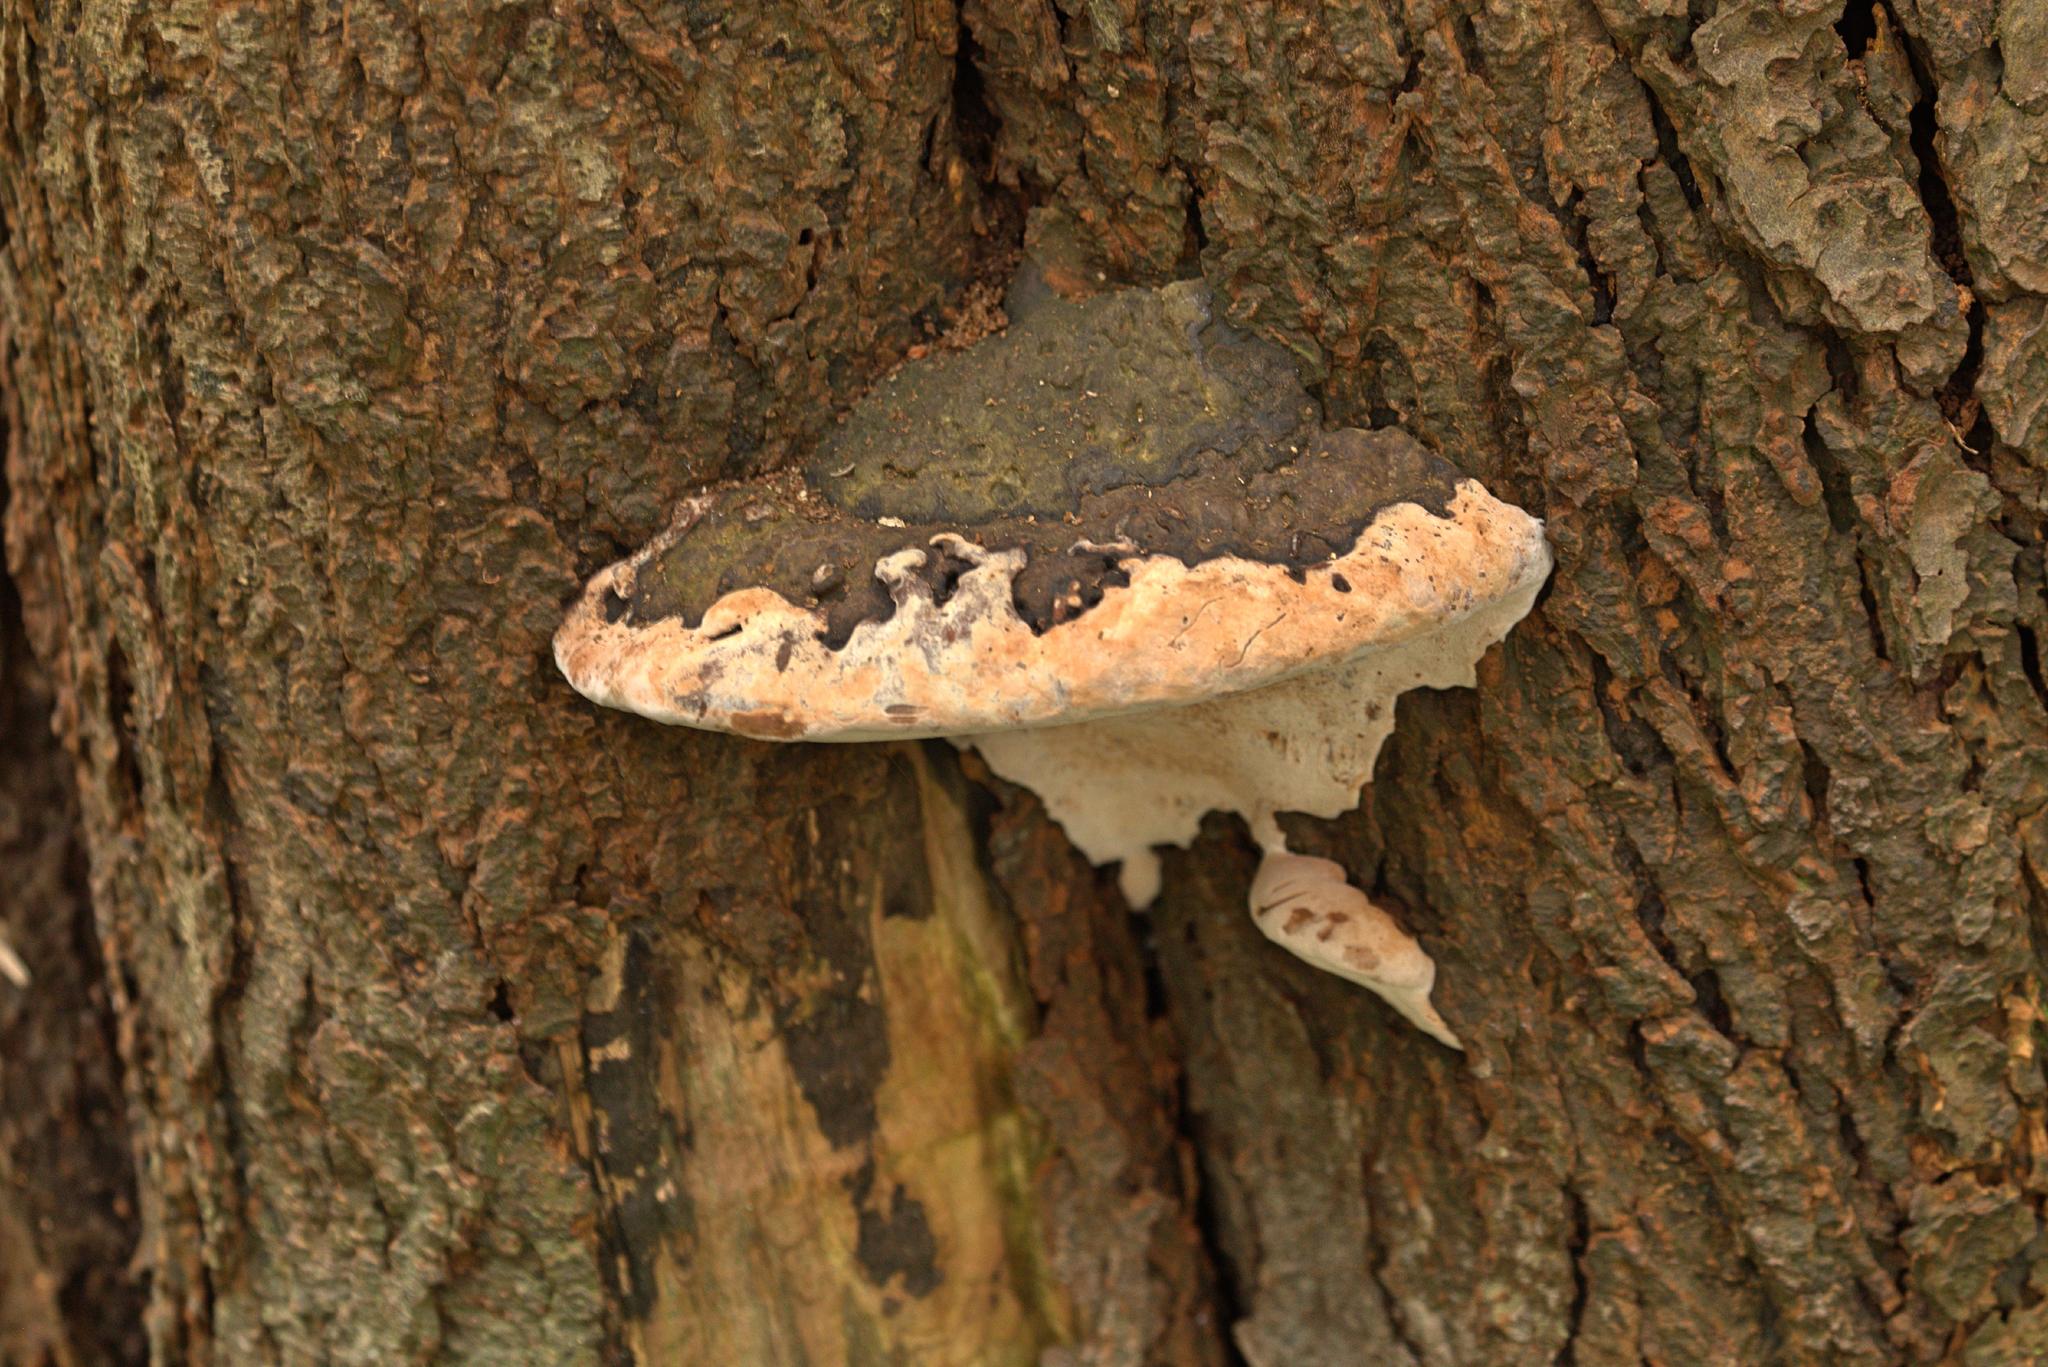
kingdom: Fungi
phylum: Basidiomycota
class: Agaricomycetes
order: Polyporales
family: Polyporaceae
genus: Ganoderma
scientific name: Ganoderma applanatum
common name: Artist's bracket
